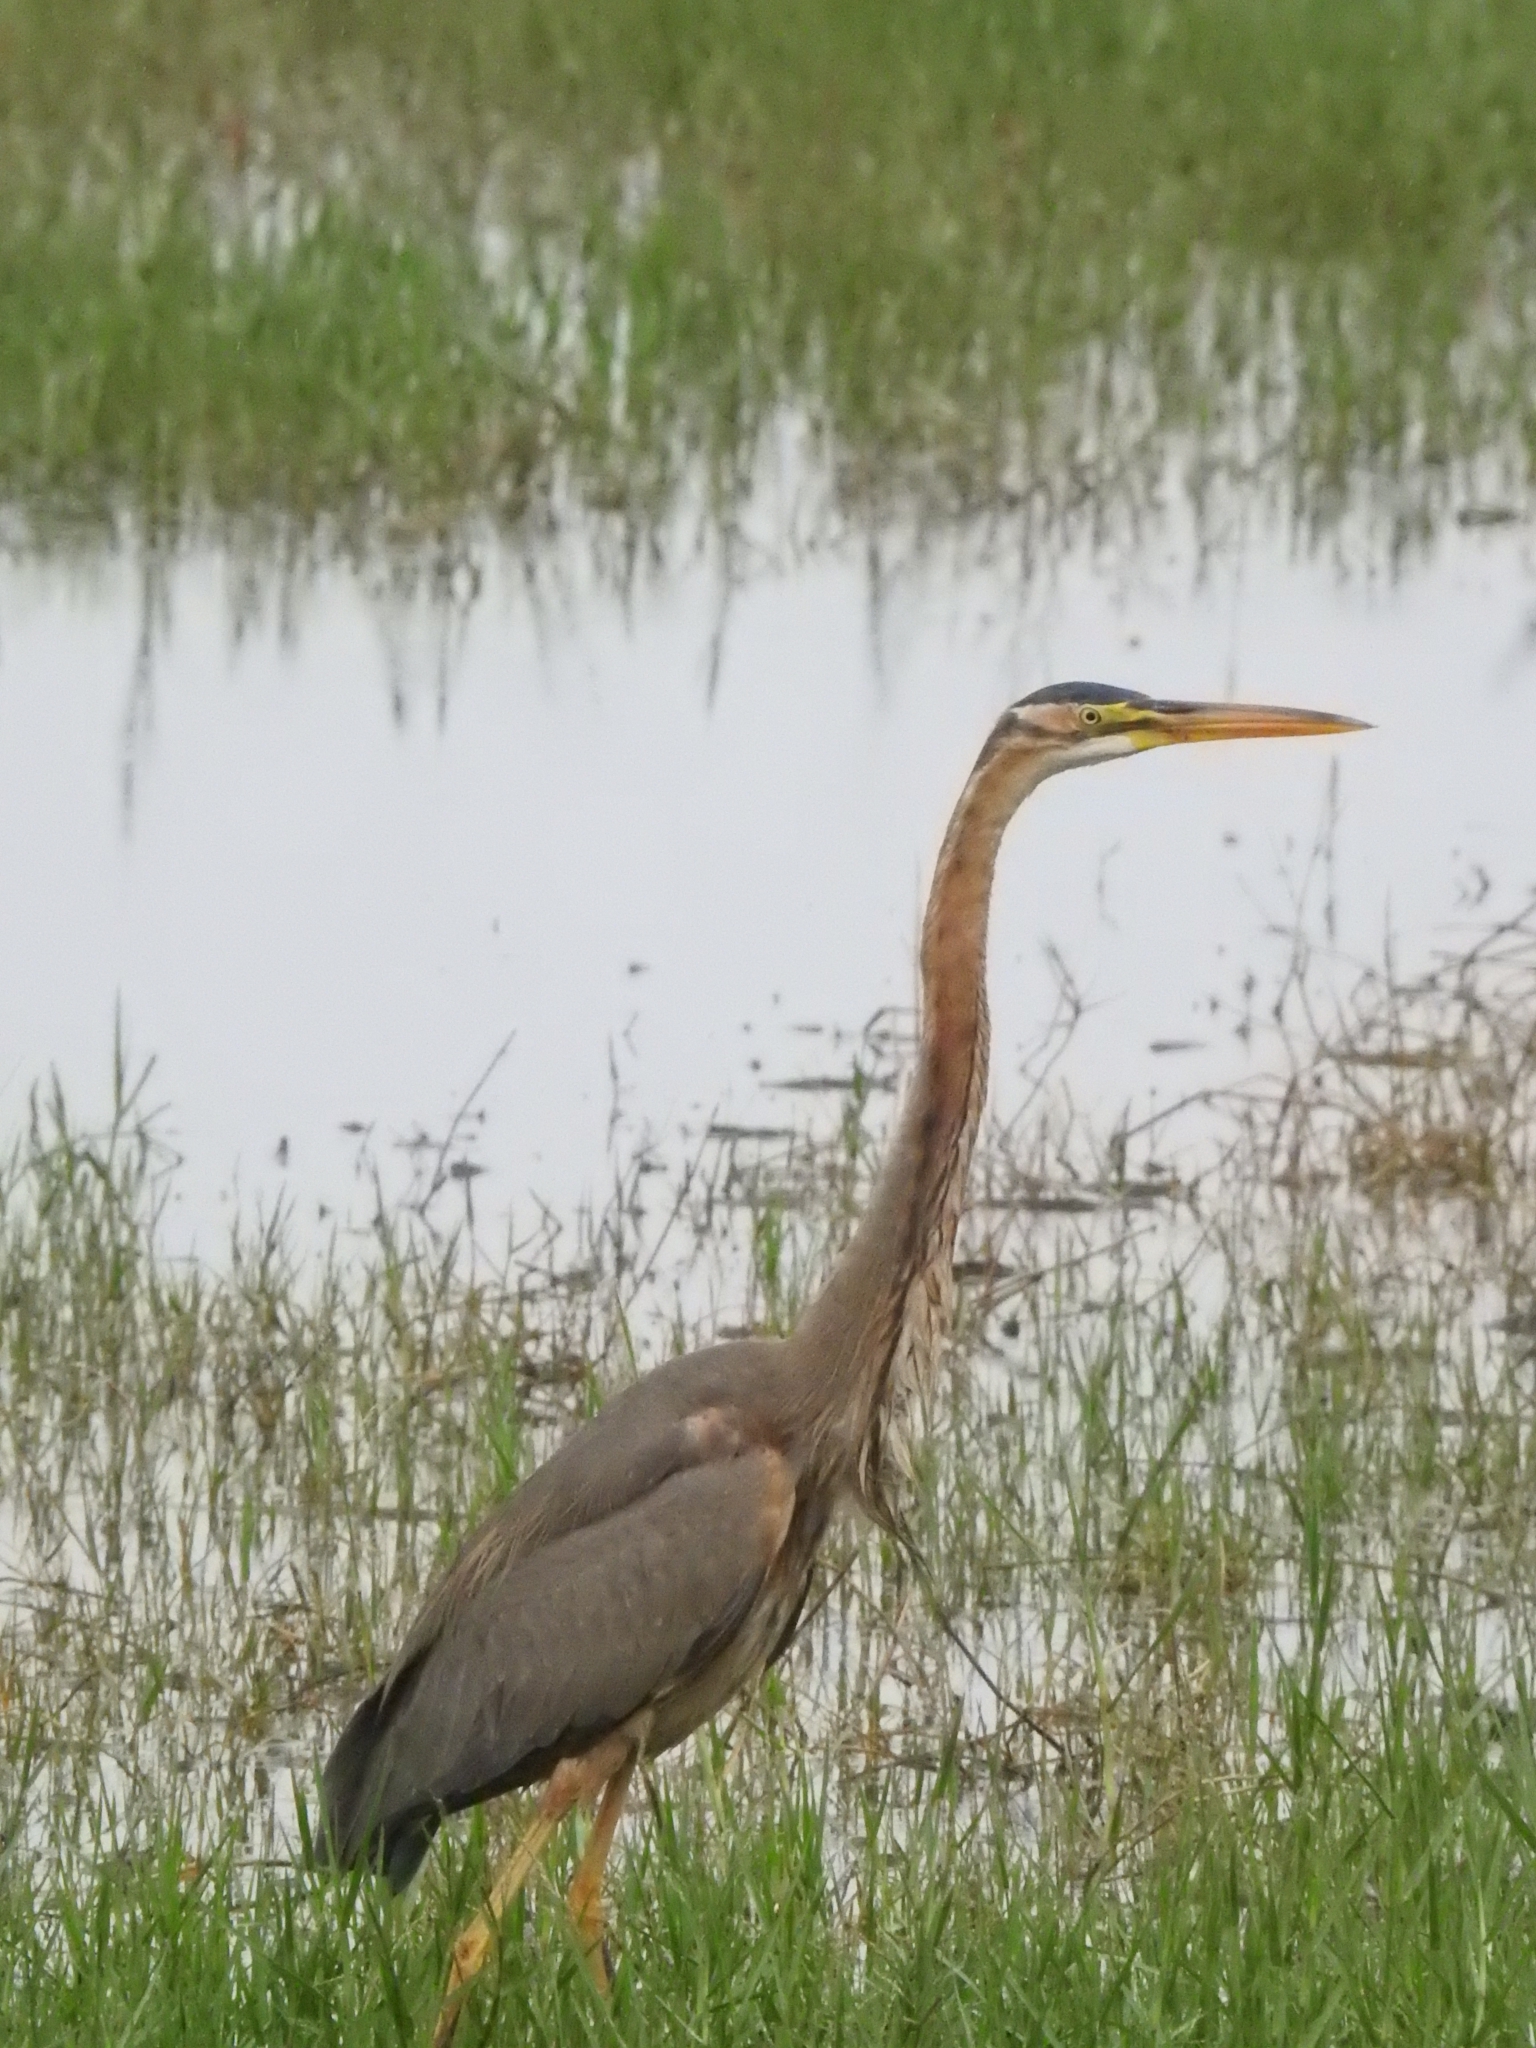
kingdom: Animalia
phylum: Chordata
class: Aves
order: Pelecaniformes
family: Ardeidae
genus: Ardea
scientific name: Ardea purpurea
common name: Purple heron
